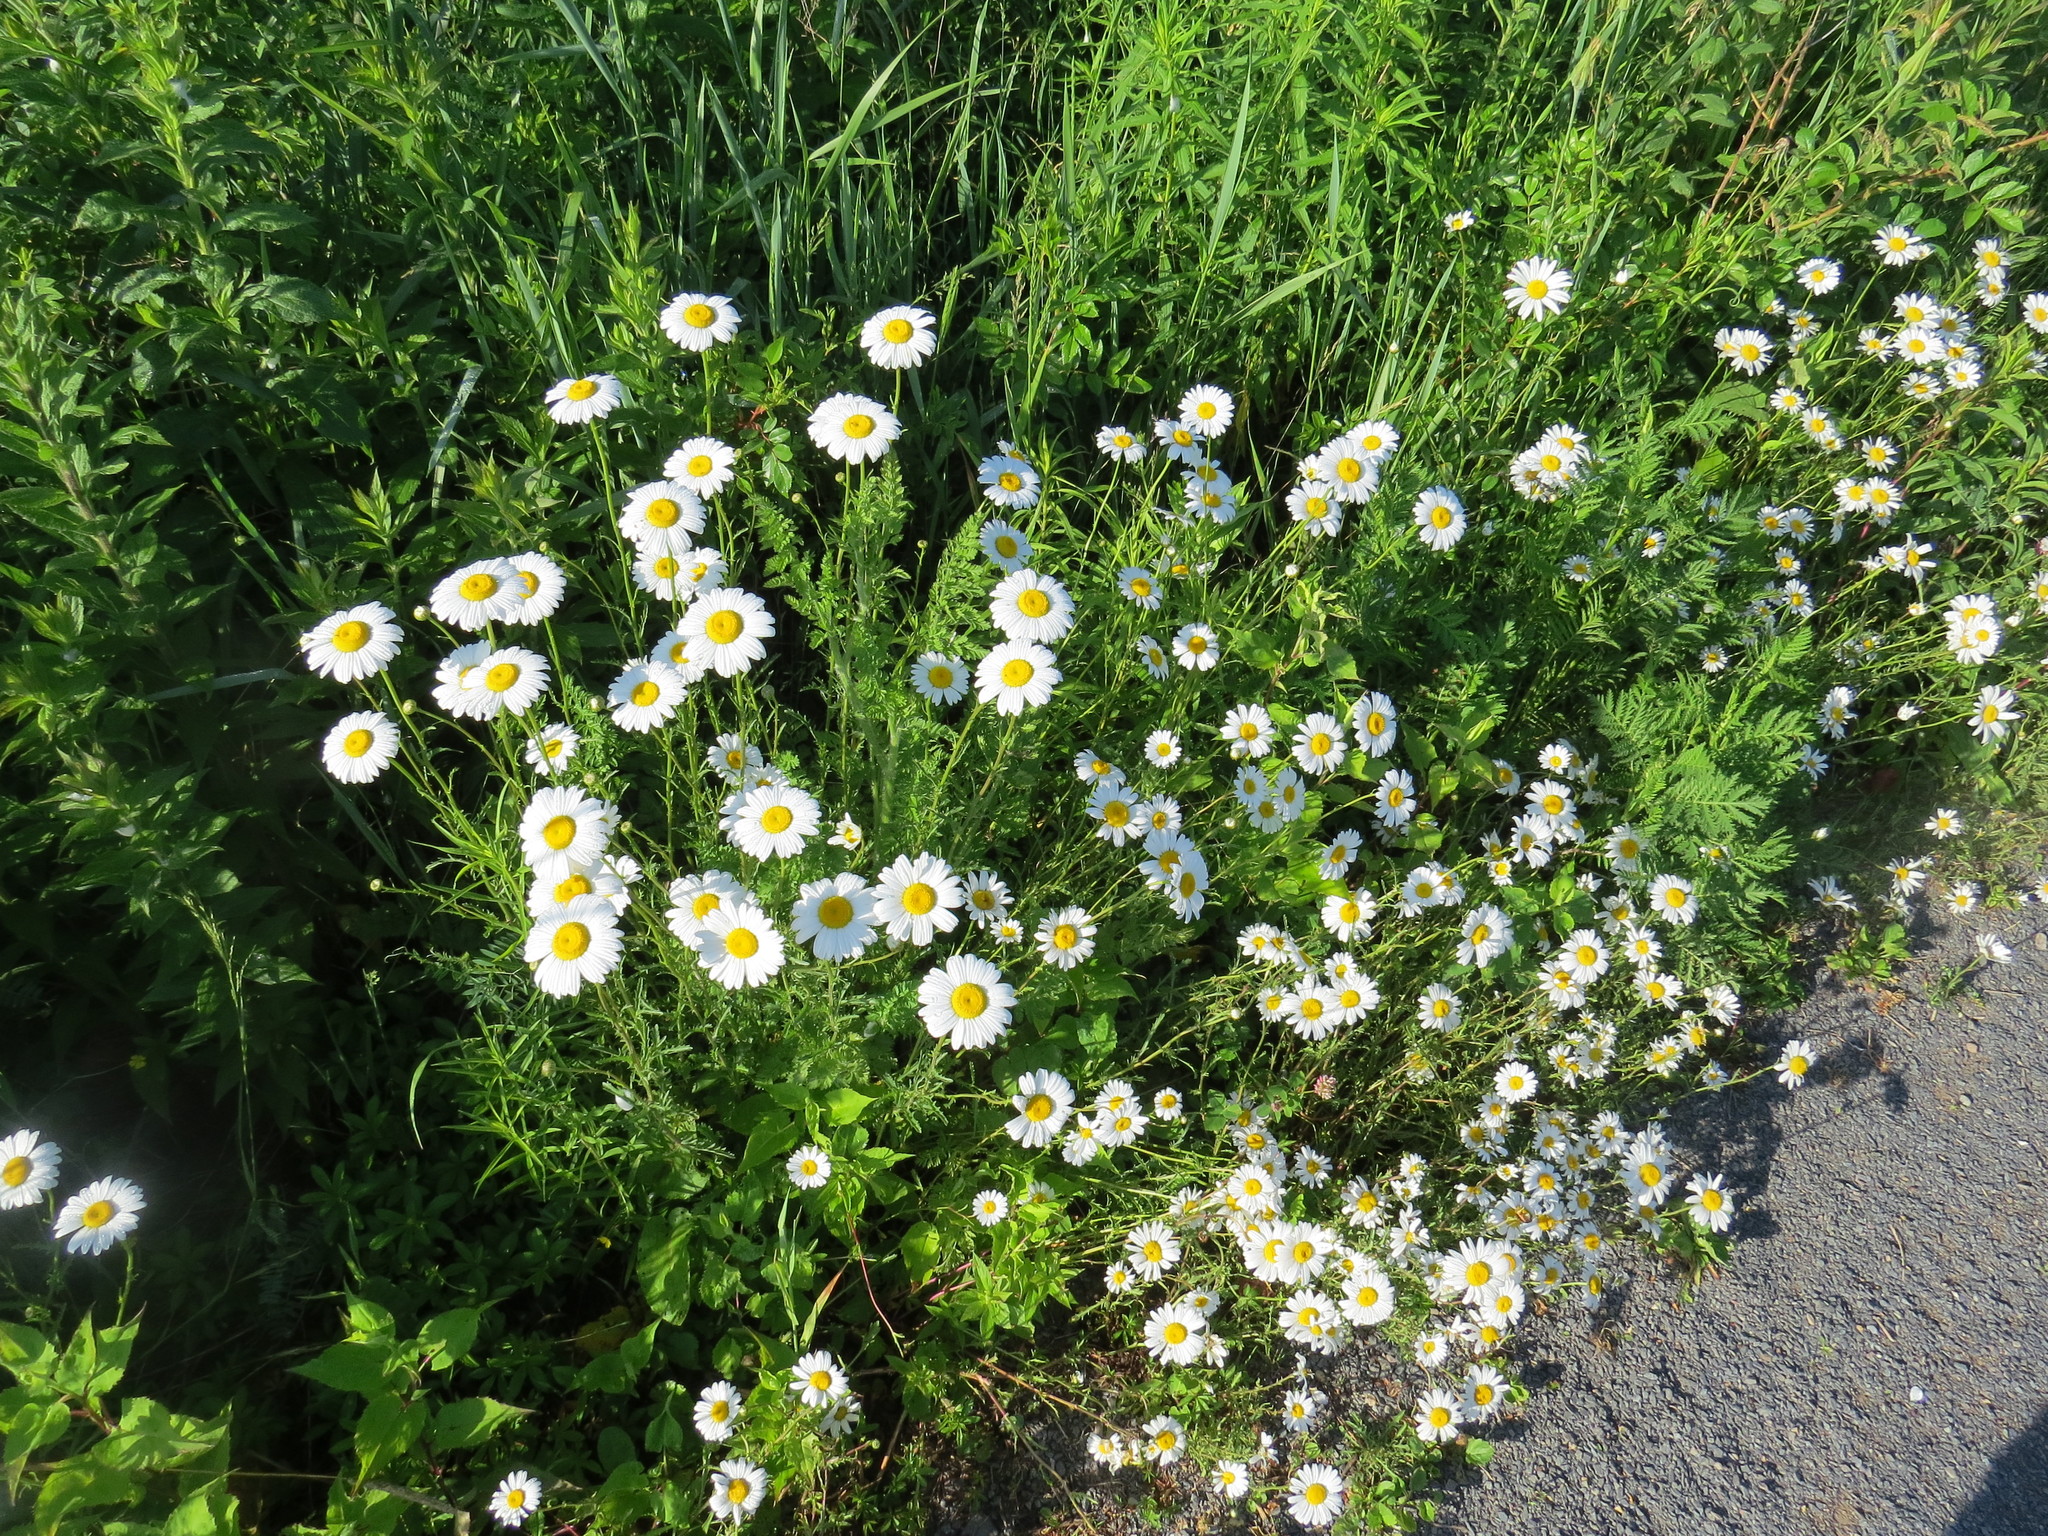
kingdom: Plantae
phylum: Tracheophyta
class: Magnoliopsida
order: Asterales
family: Asteraceae
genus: Leucanthemum
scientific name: Leucanthemum vulgare
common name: Oxeye daisy
